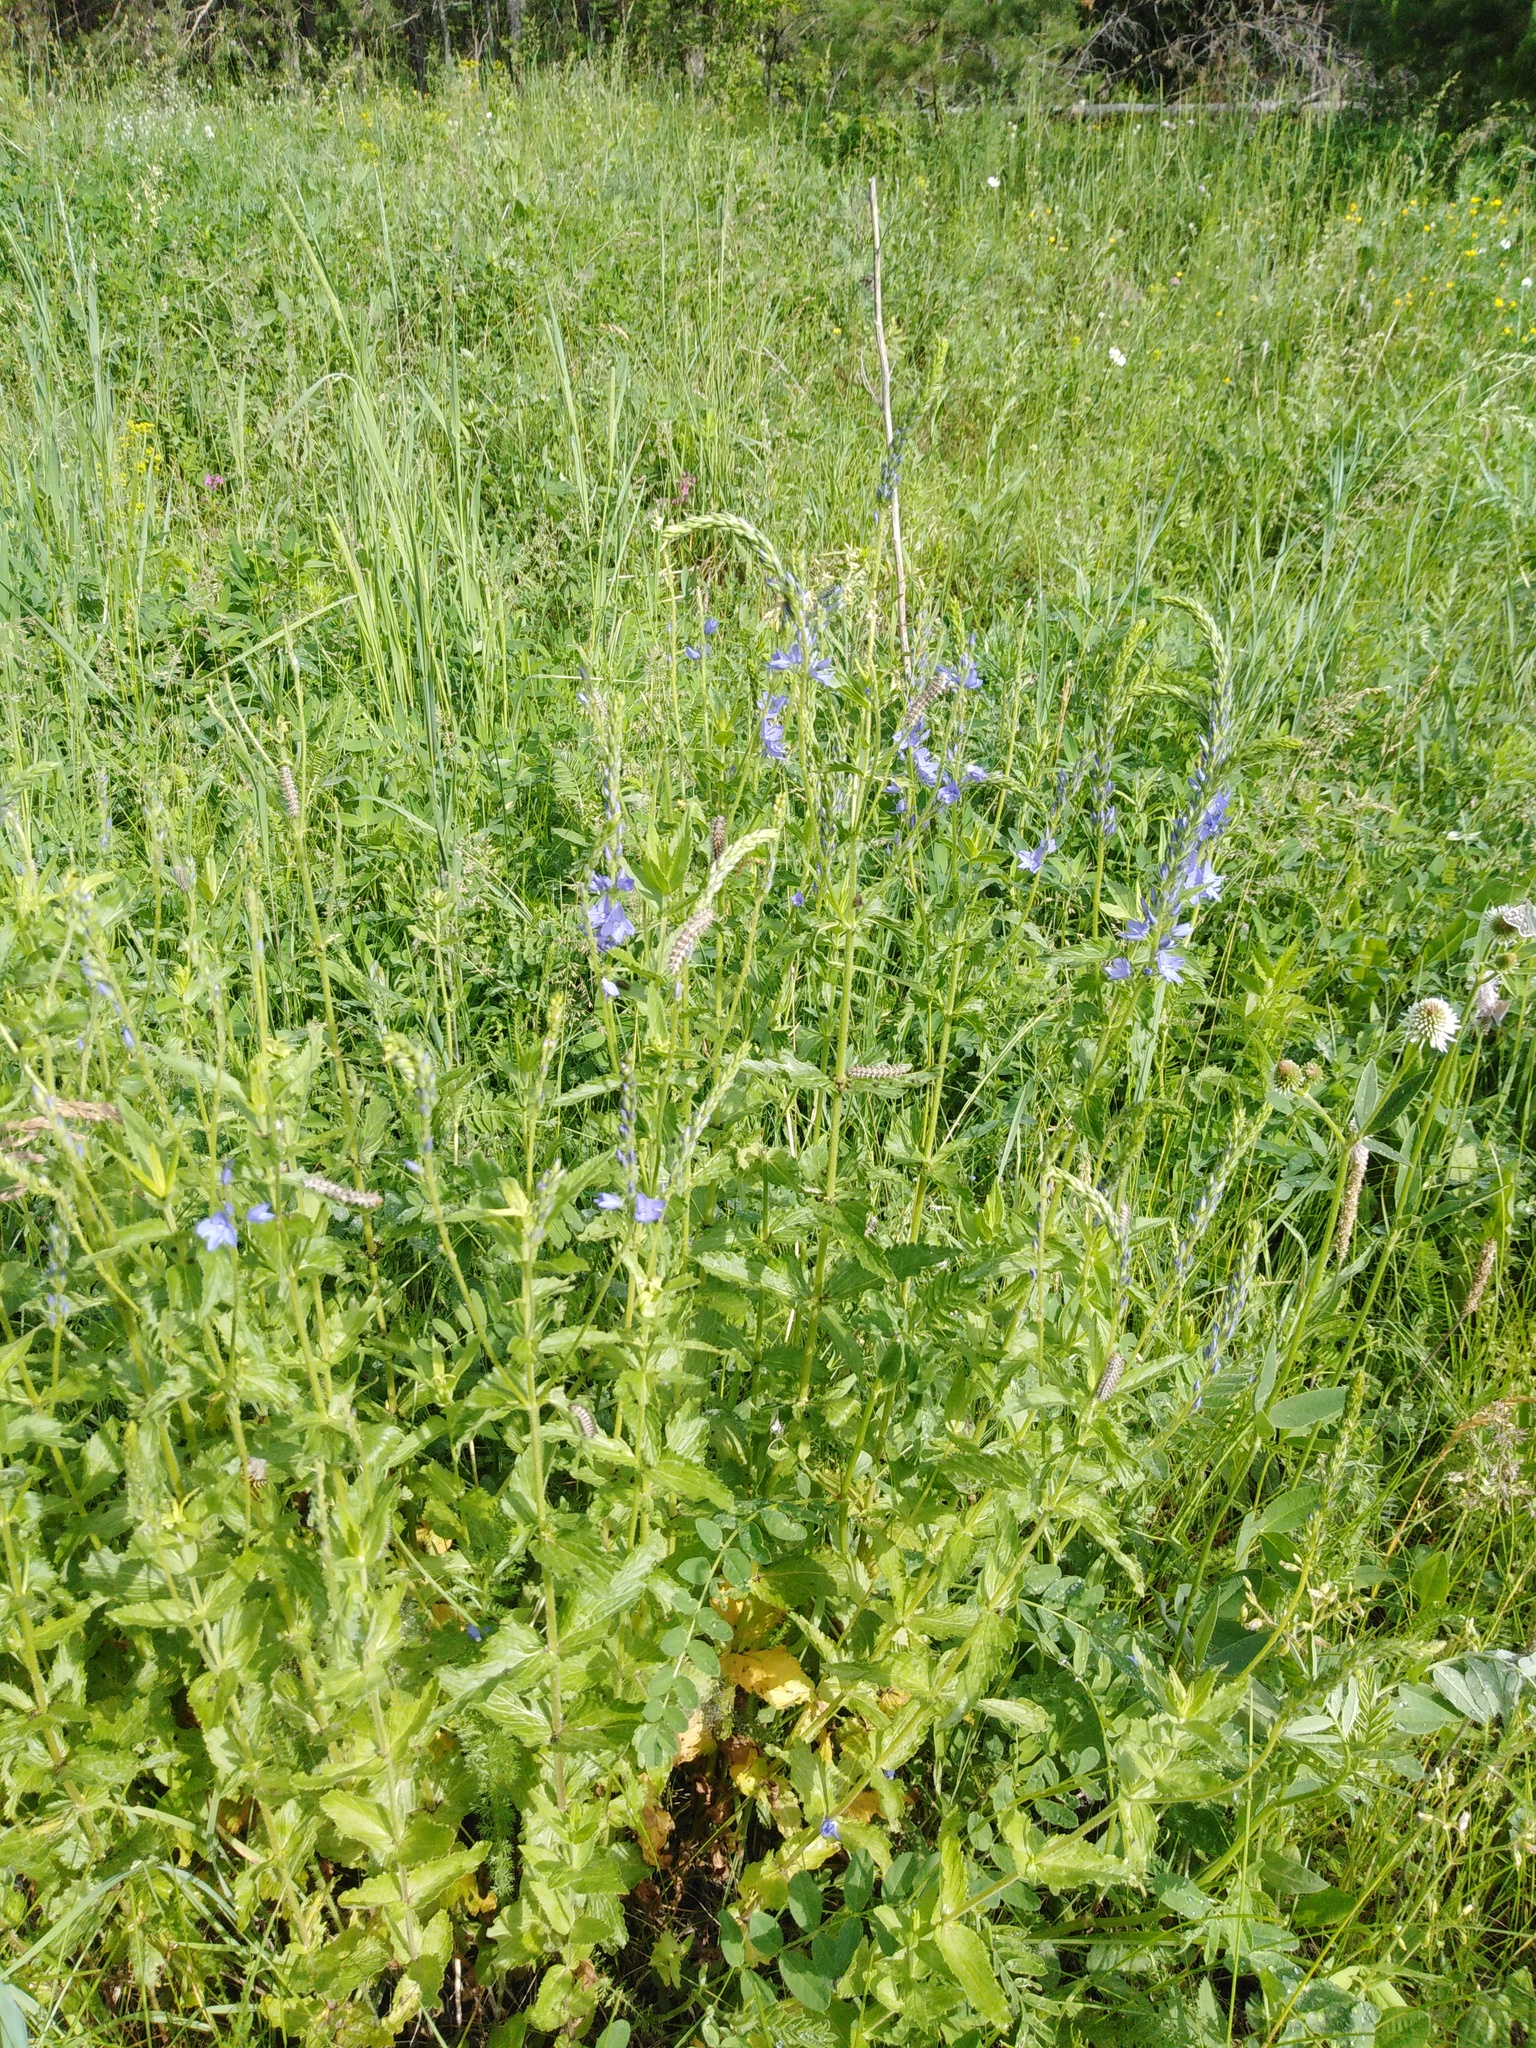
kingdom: Plantae
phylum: Tracheophyta
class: Magnoliopsida
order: Lamiales
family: Plantaginaceae
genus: Veronica
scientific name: Veronica teucrium
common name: Large speedwell
